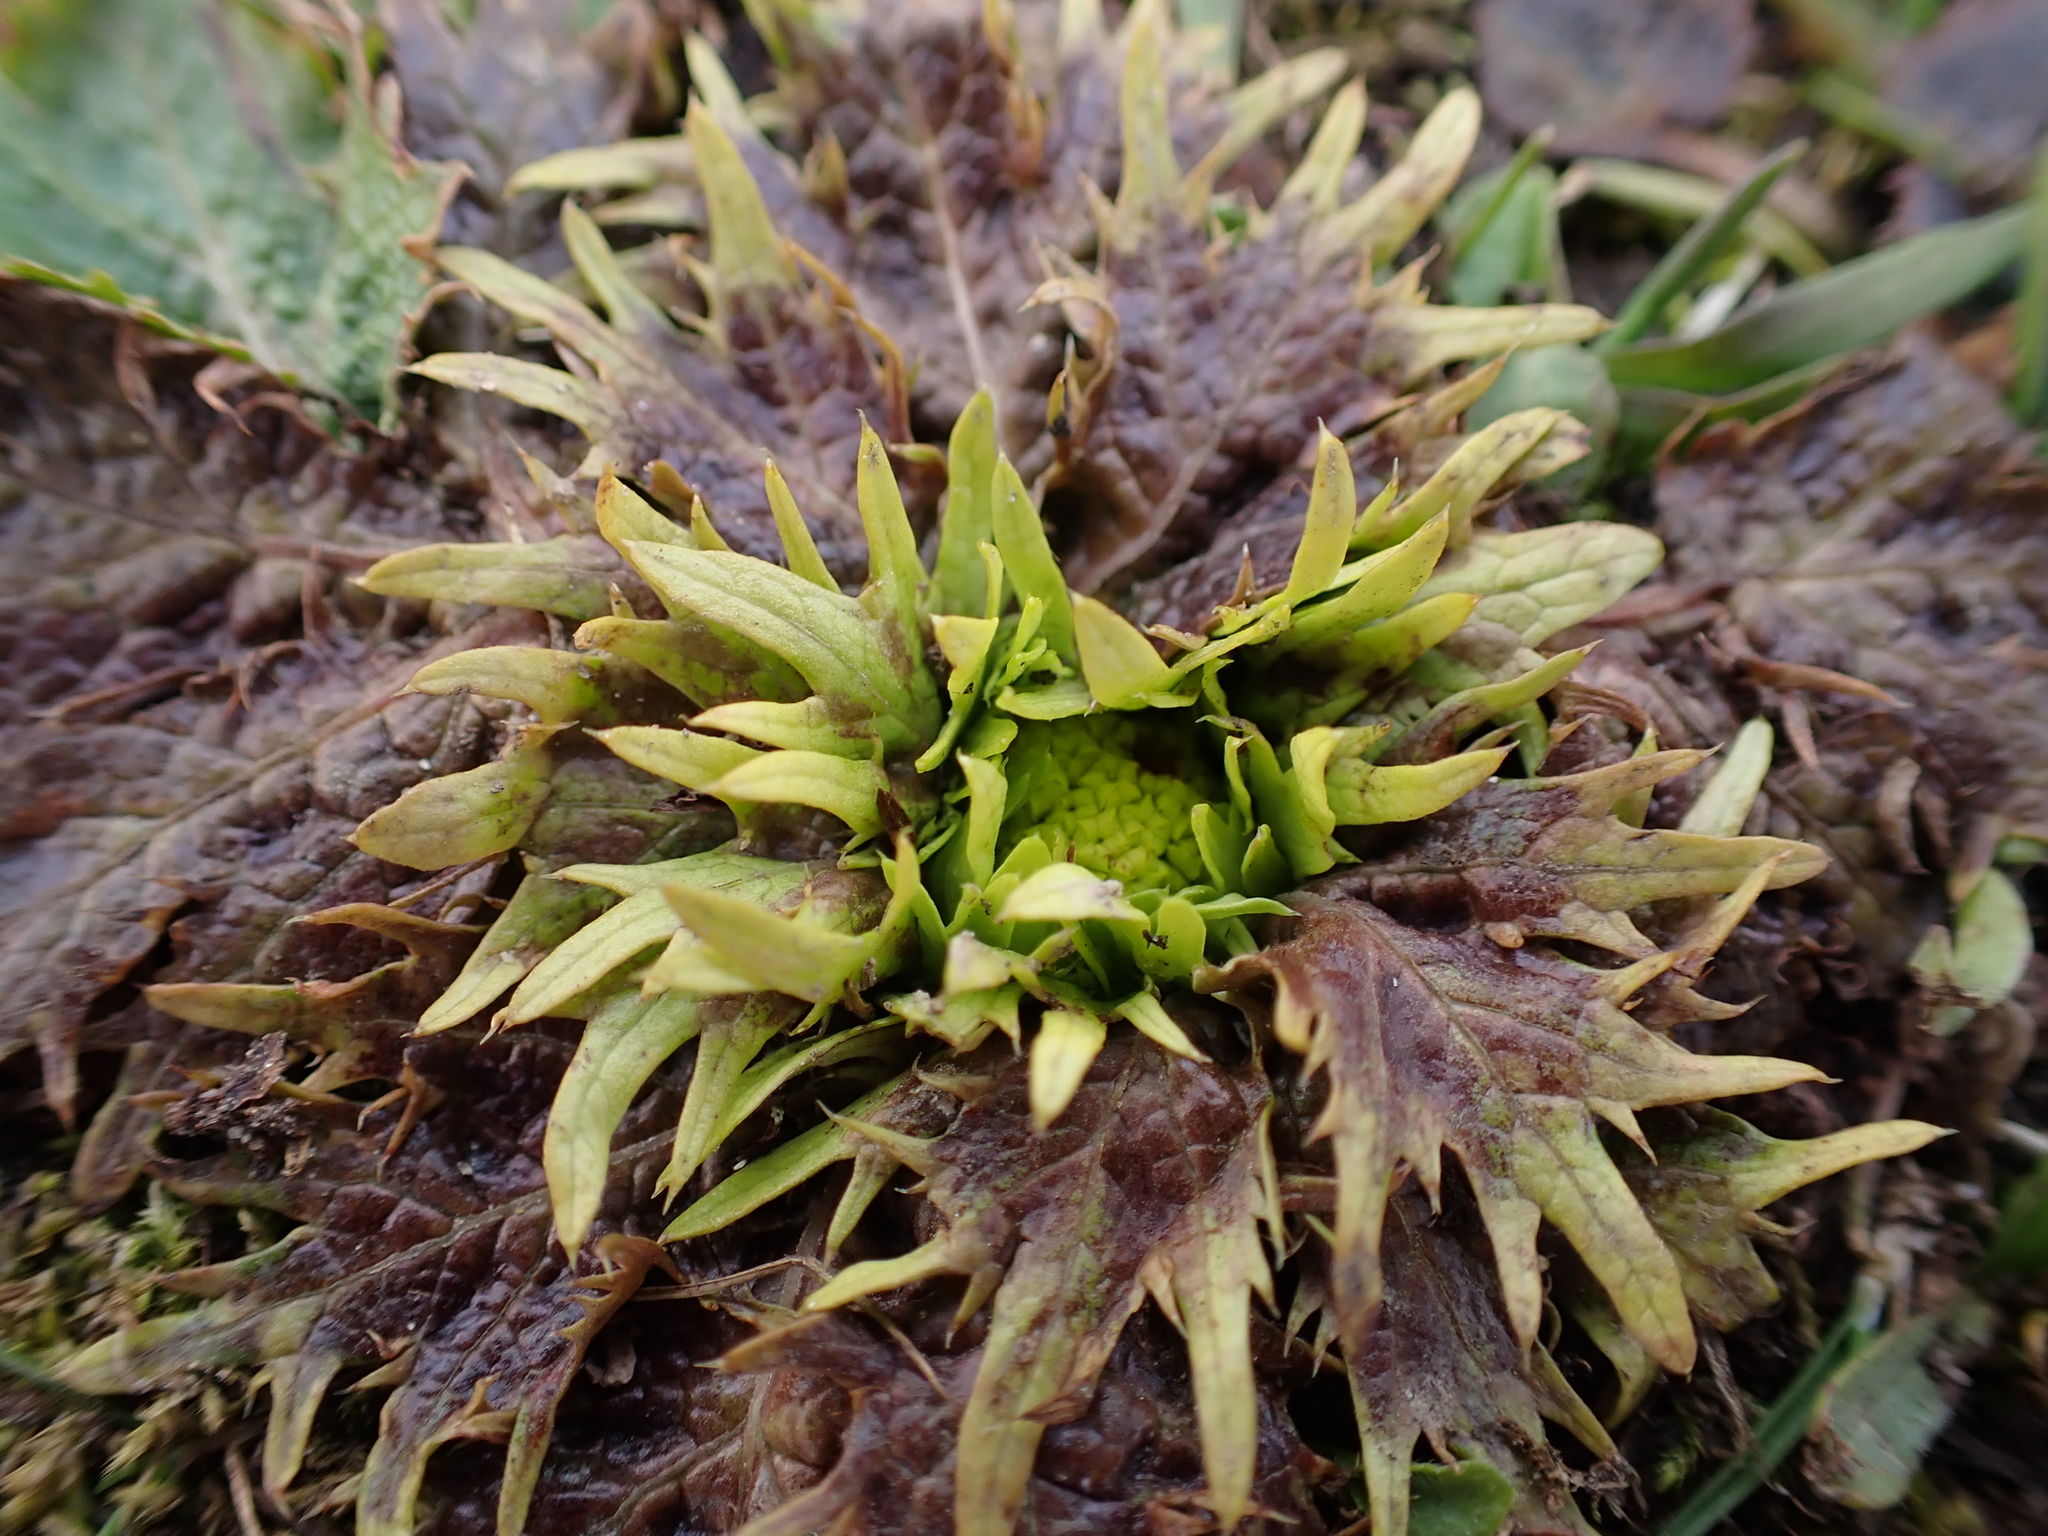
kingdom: Plantae
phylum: Tracheophyta
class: Magnoliopsida
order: Apiales
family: Apiaceae
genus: Sanicula
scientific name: Sanicula arctopoides
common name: Footsteps-of-spring
